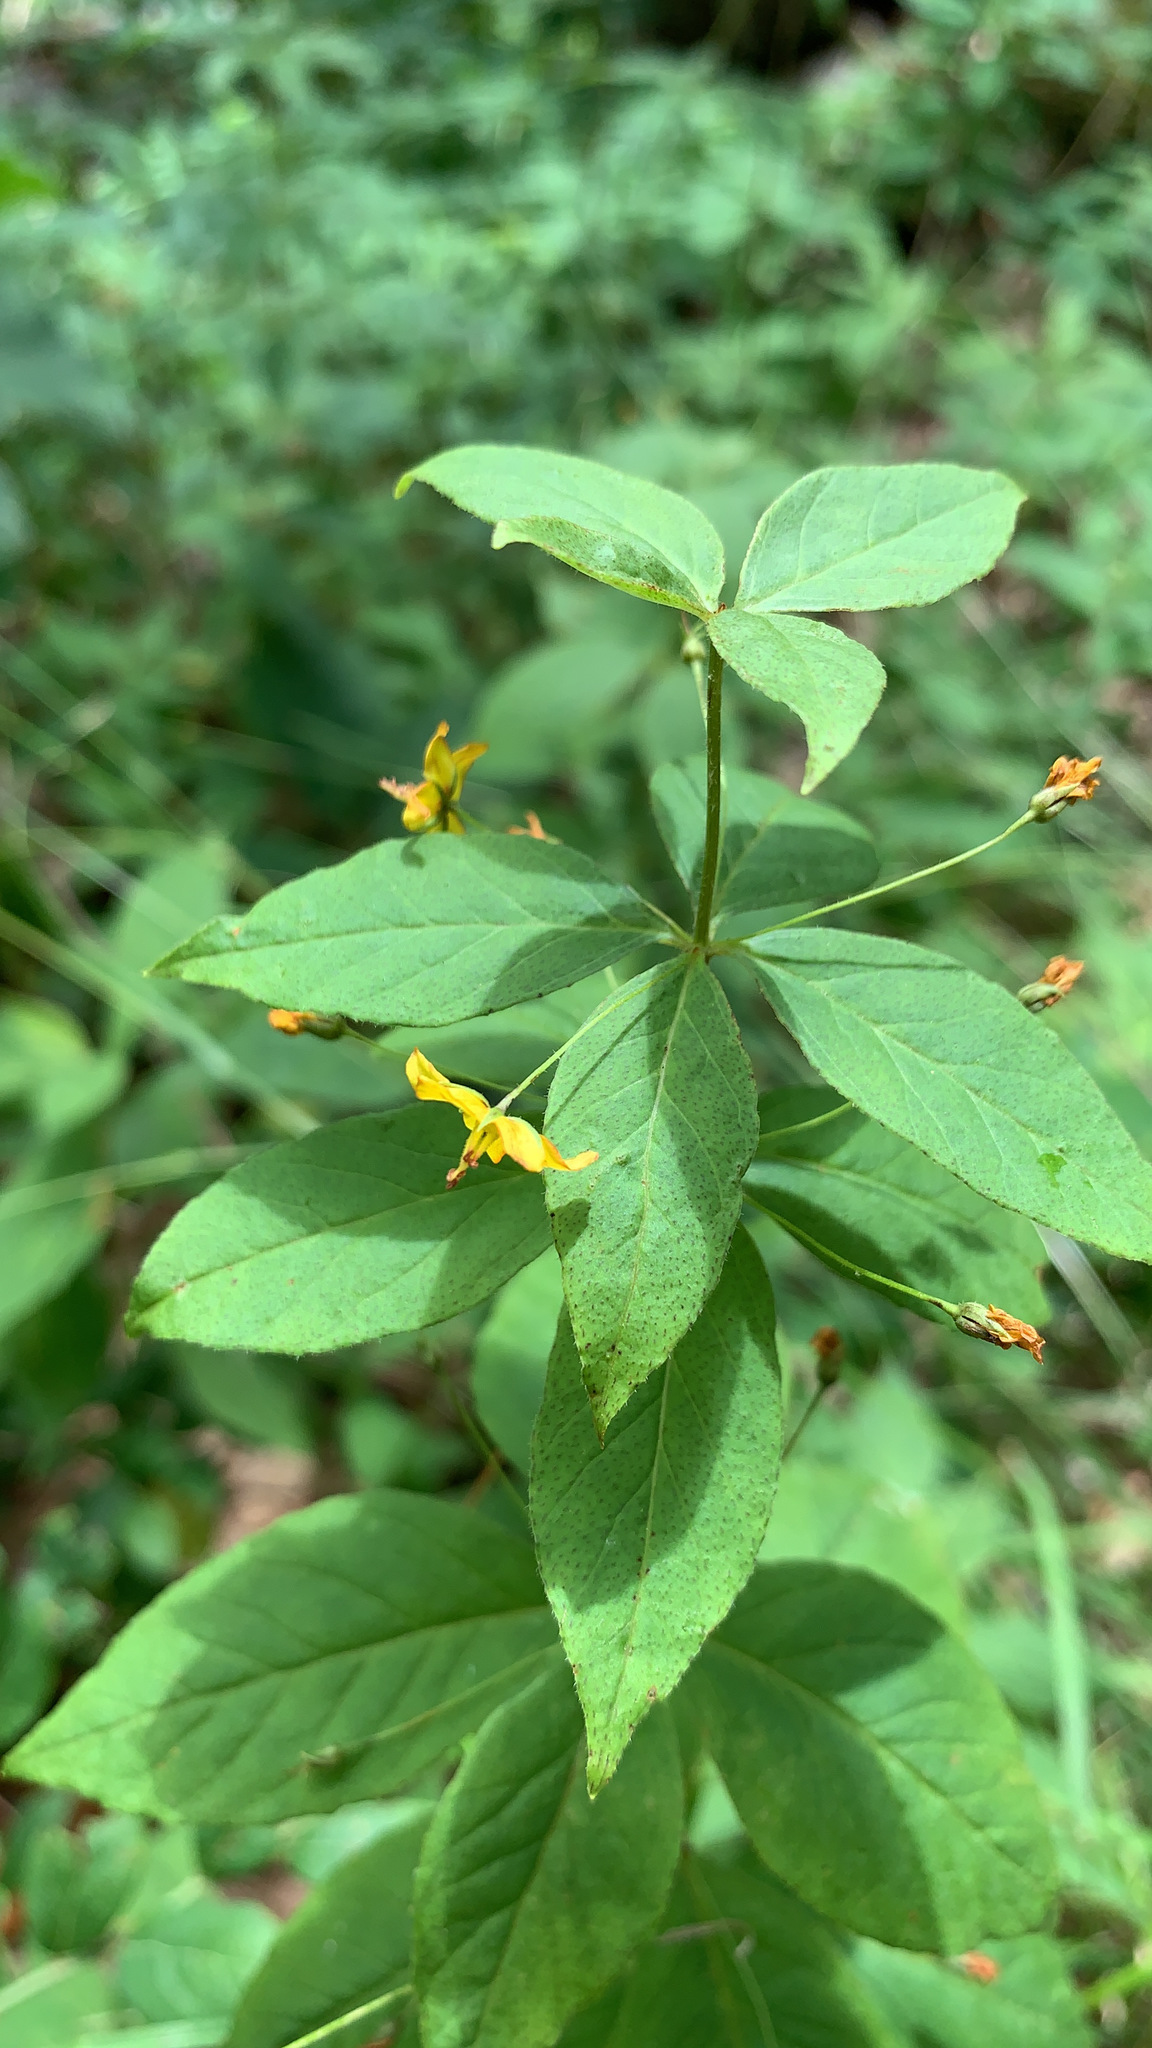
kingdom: Plantae
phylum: Tracheophyta
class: Magnoliopsida
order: Ericales
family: Primulaceae
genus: Lysimachia
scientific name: Lysimachia quadrifolia
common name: Whorled loosestrife
